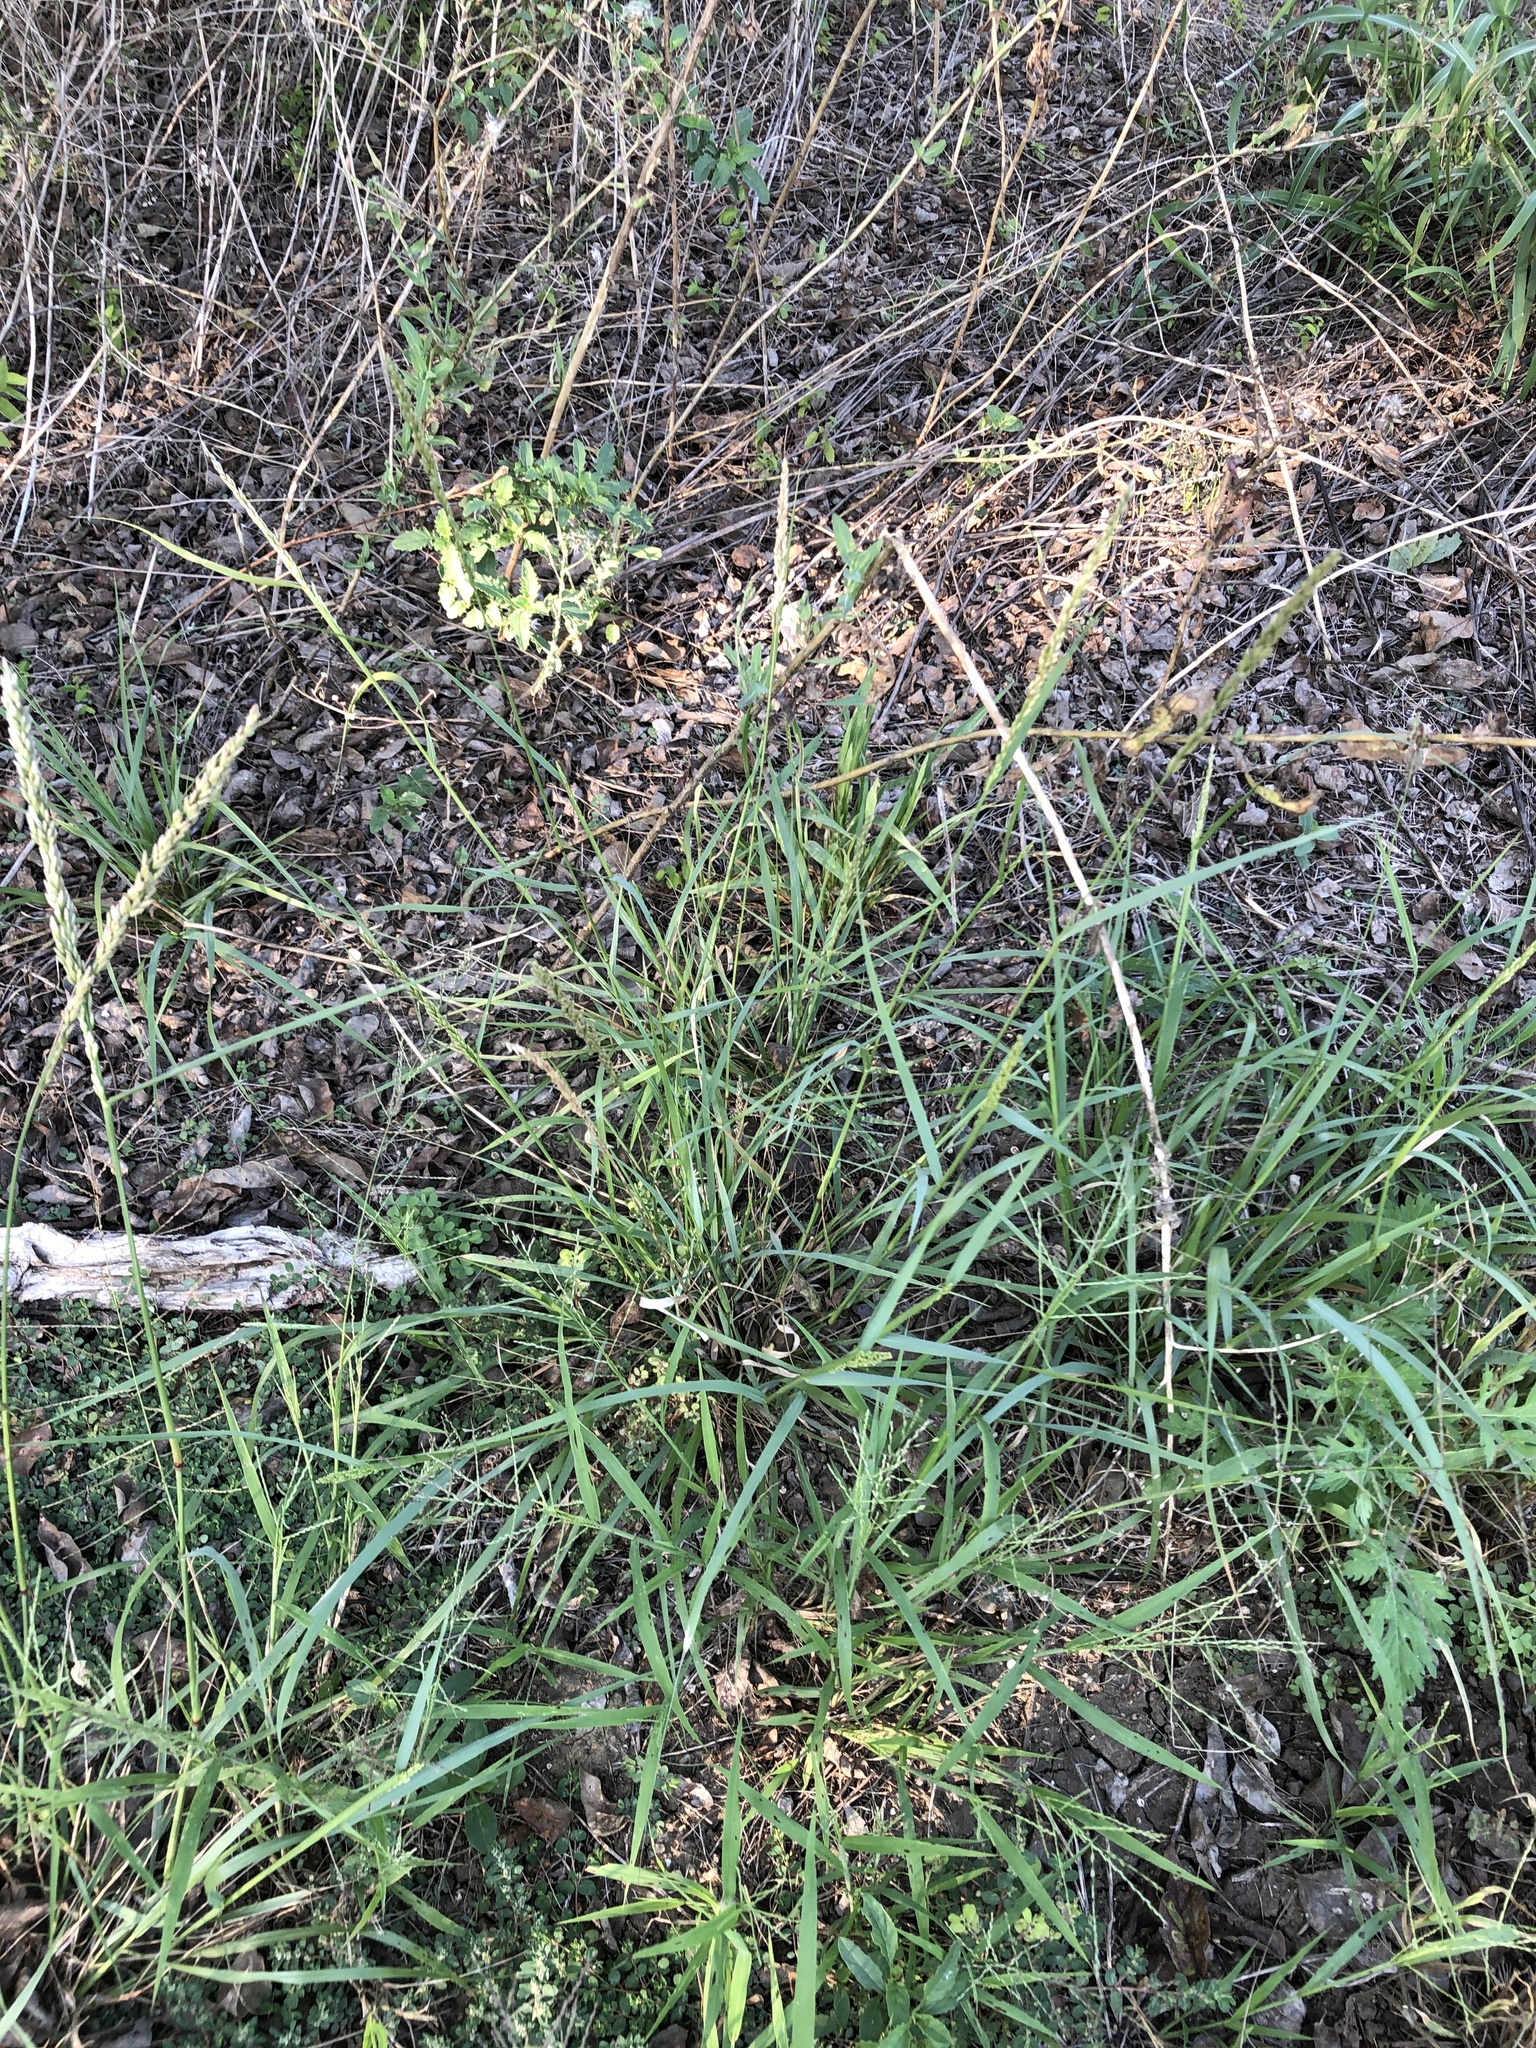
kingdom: Plantae
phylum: Tracheophyta
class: Liliopsida
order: Poales
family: Poaceae
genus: Tridens
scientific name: Tridens albescens
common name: White tridens
